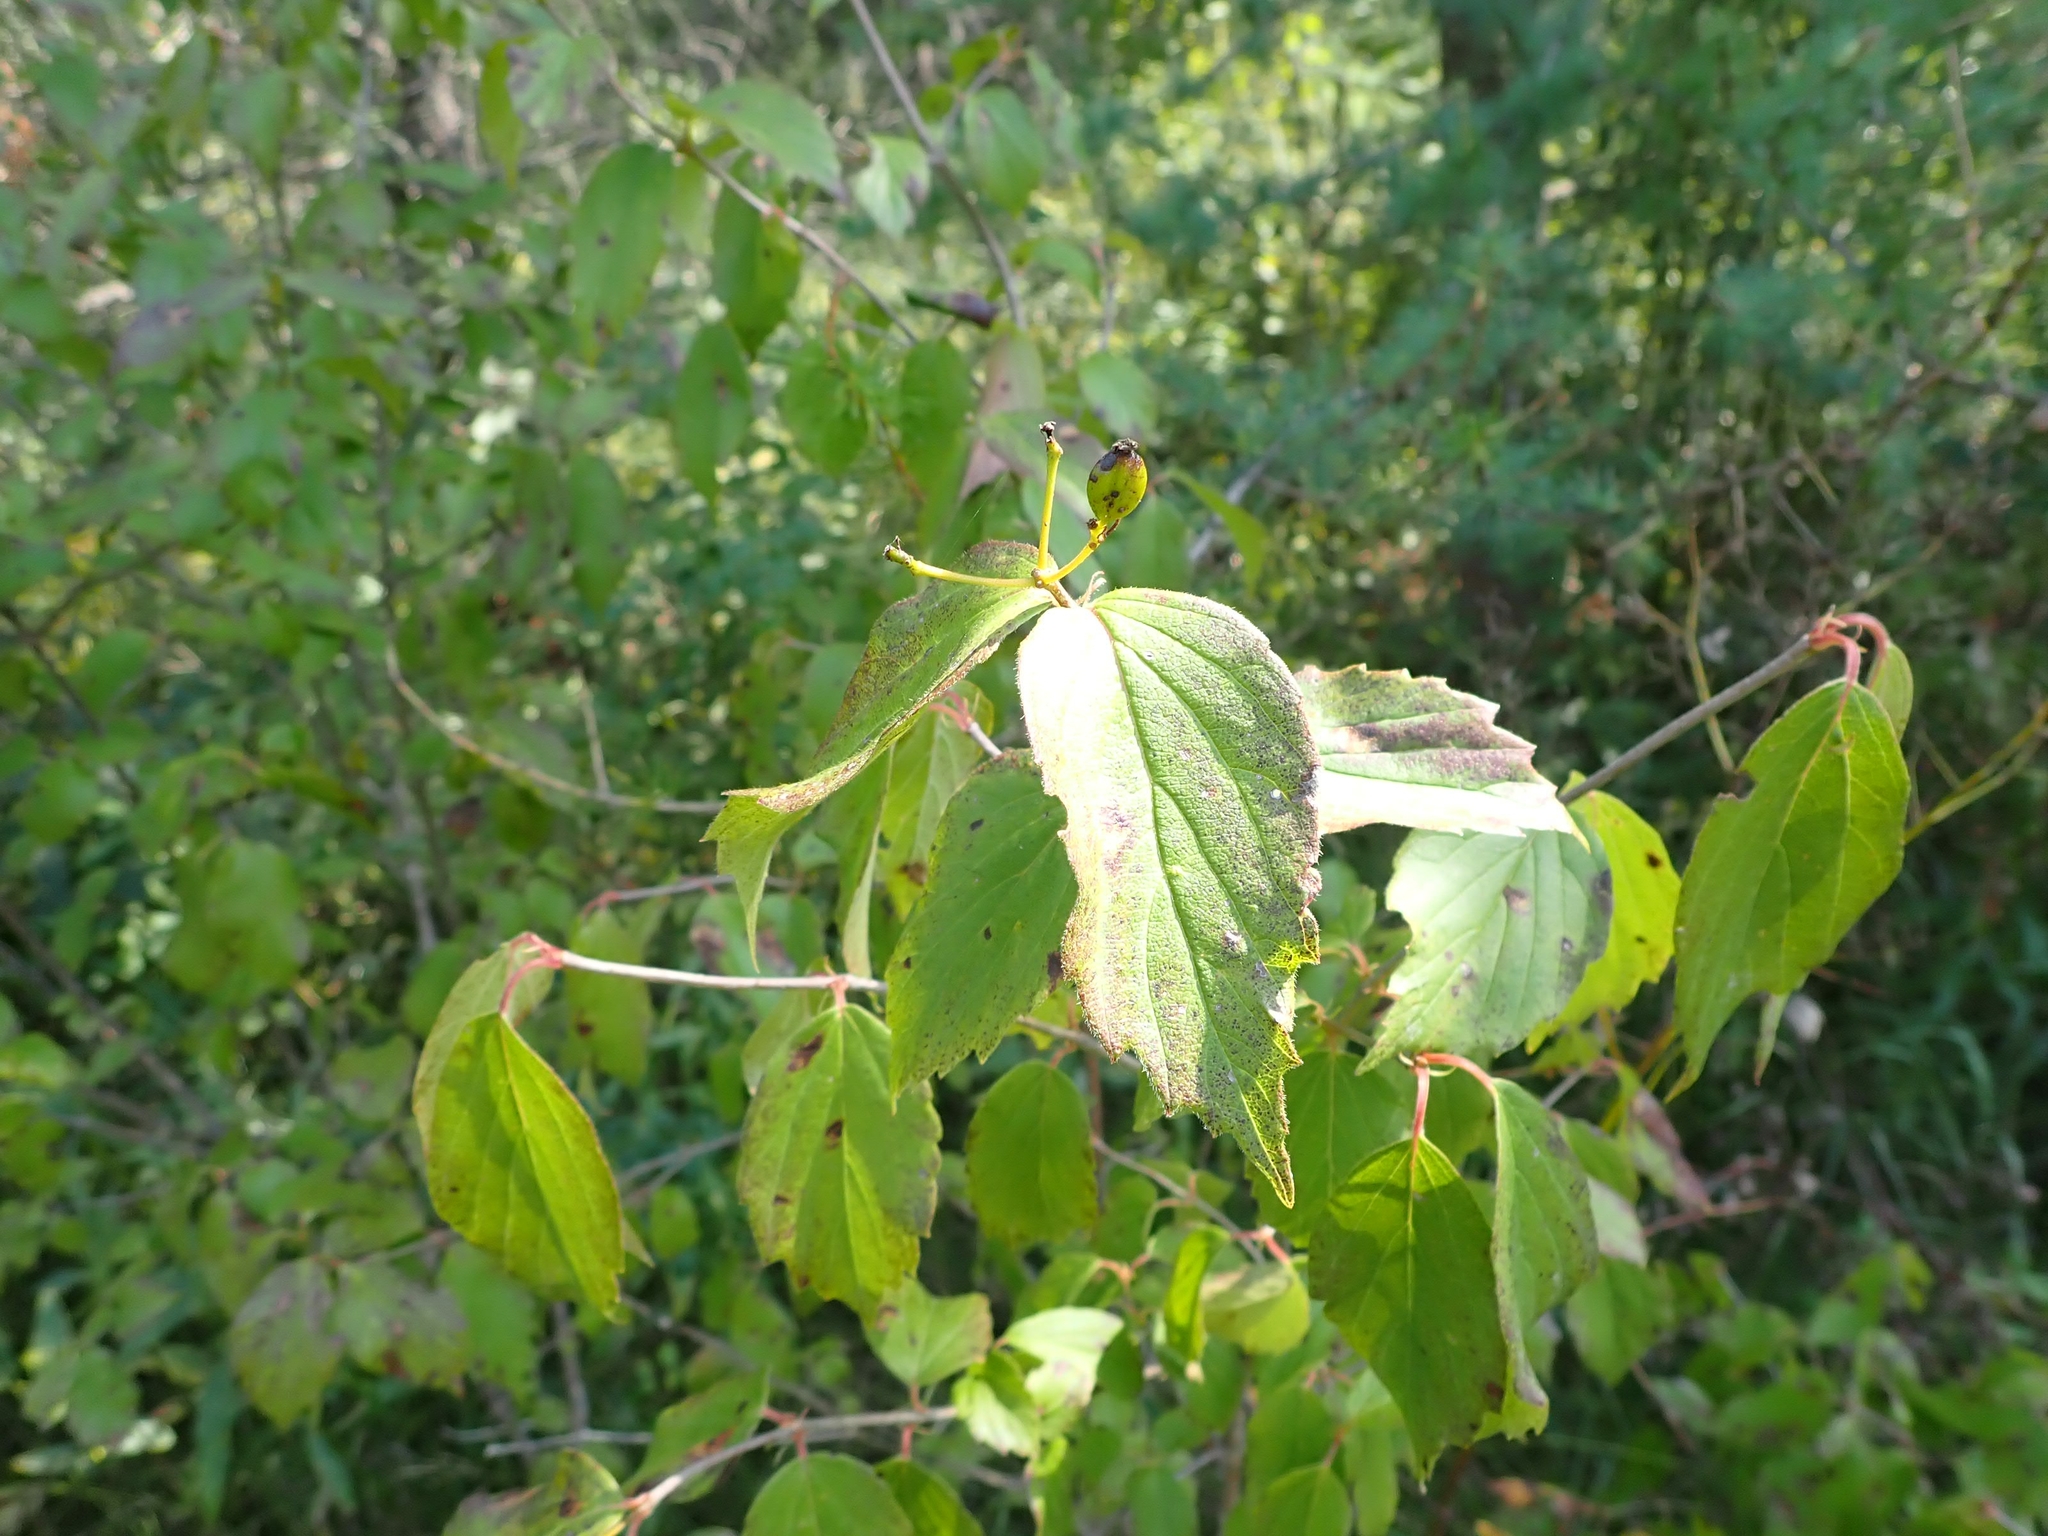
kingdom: Plantae
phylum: Tracheophyta
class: Magnoliopsida
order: Dipsacales
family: Viburnaceae
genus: Viburnum
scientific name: Viburnum rafinesqueanum
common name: Downy arrow-wood
